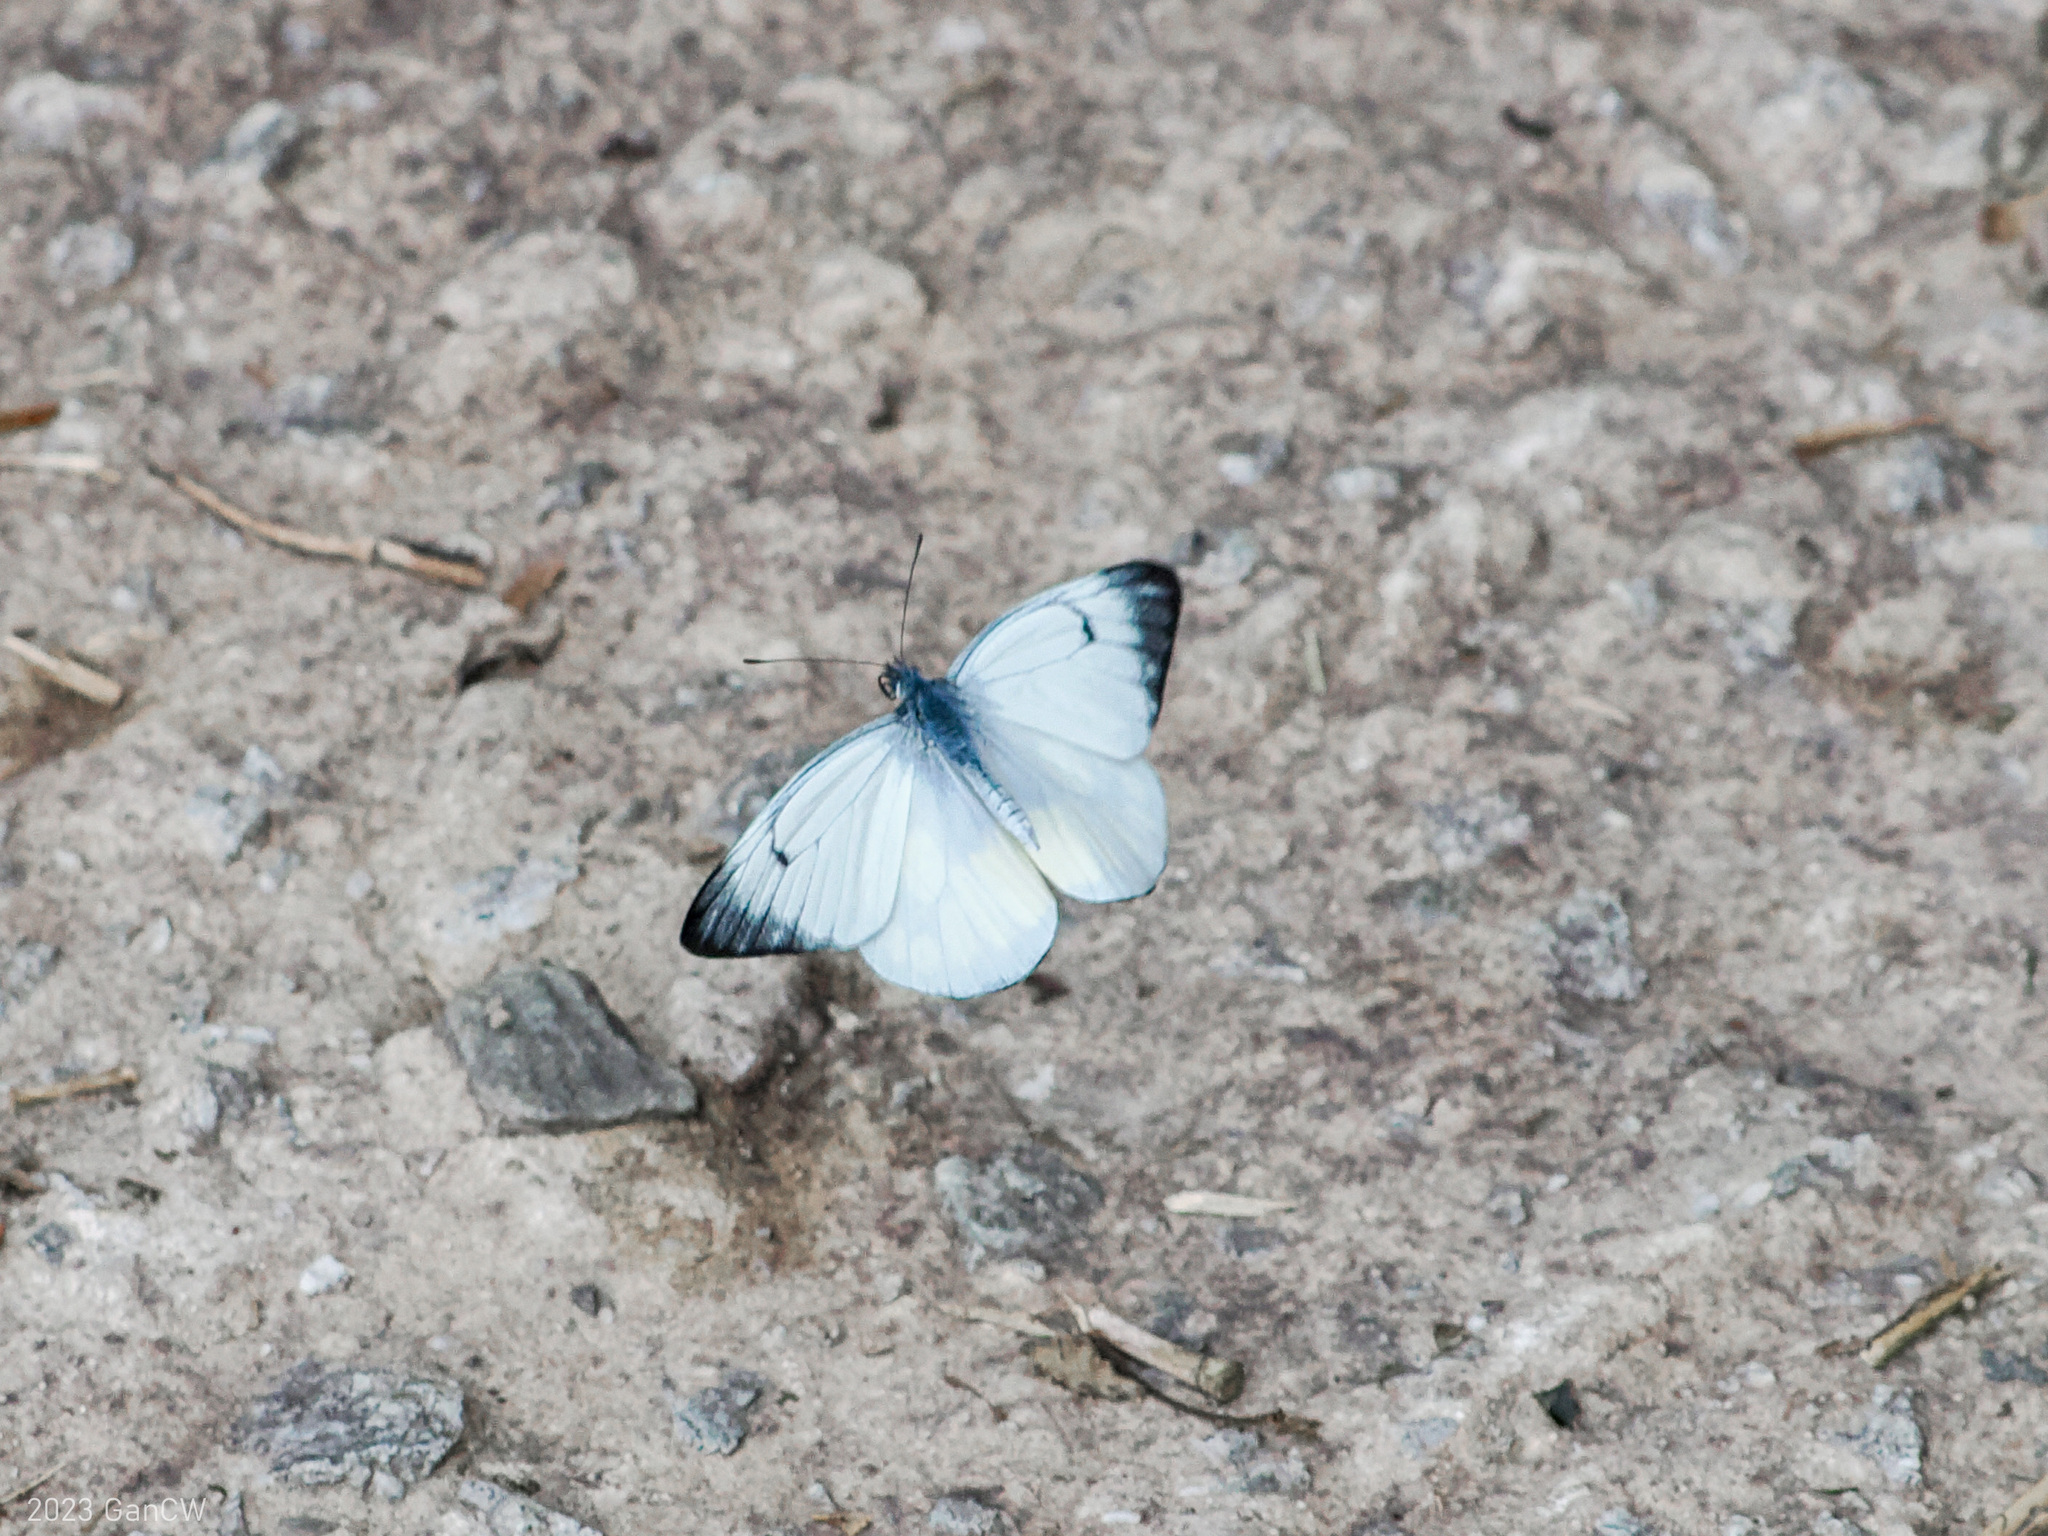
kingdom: Animalia
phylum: Arthropoda
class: Insecta
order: Lepidoptera
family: Pieridae
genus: Delias
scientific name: Delias cinerascens
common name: Kinabalu jezebel
